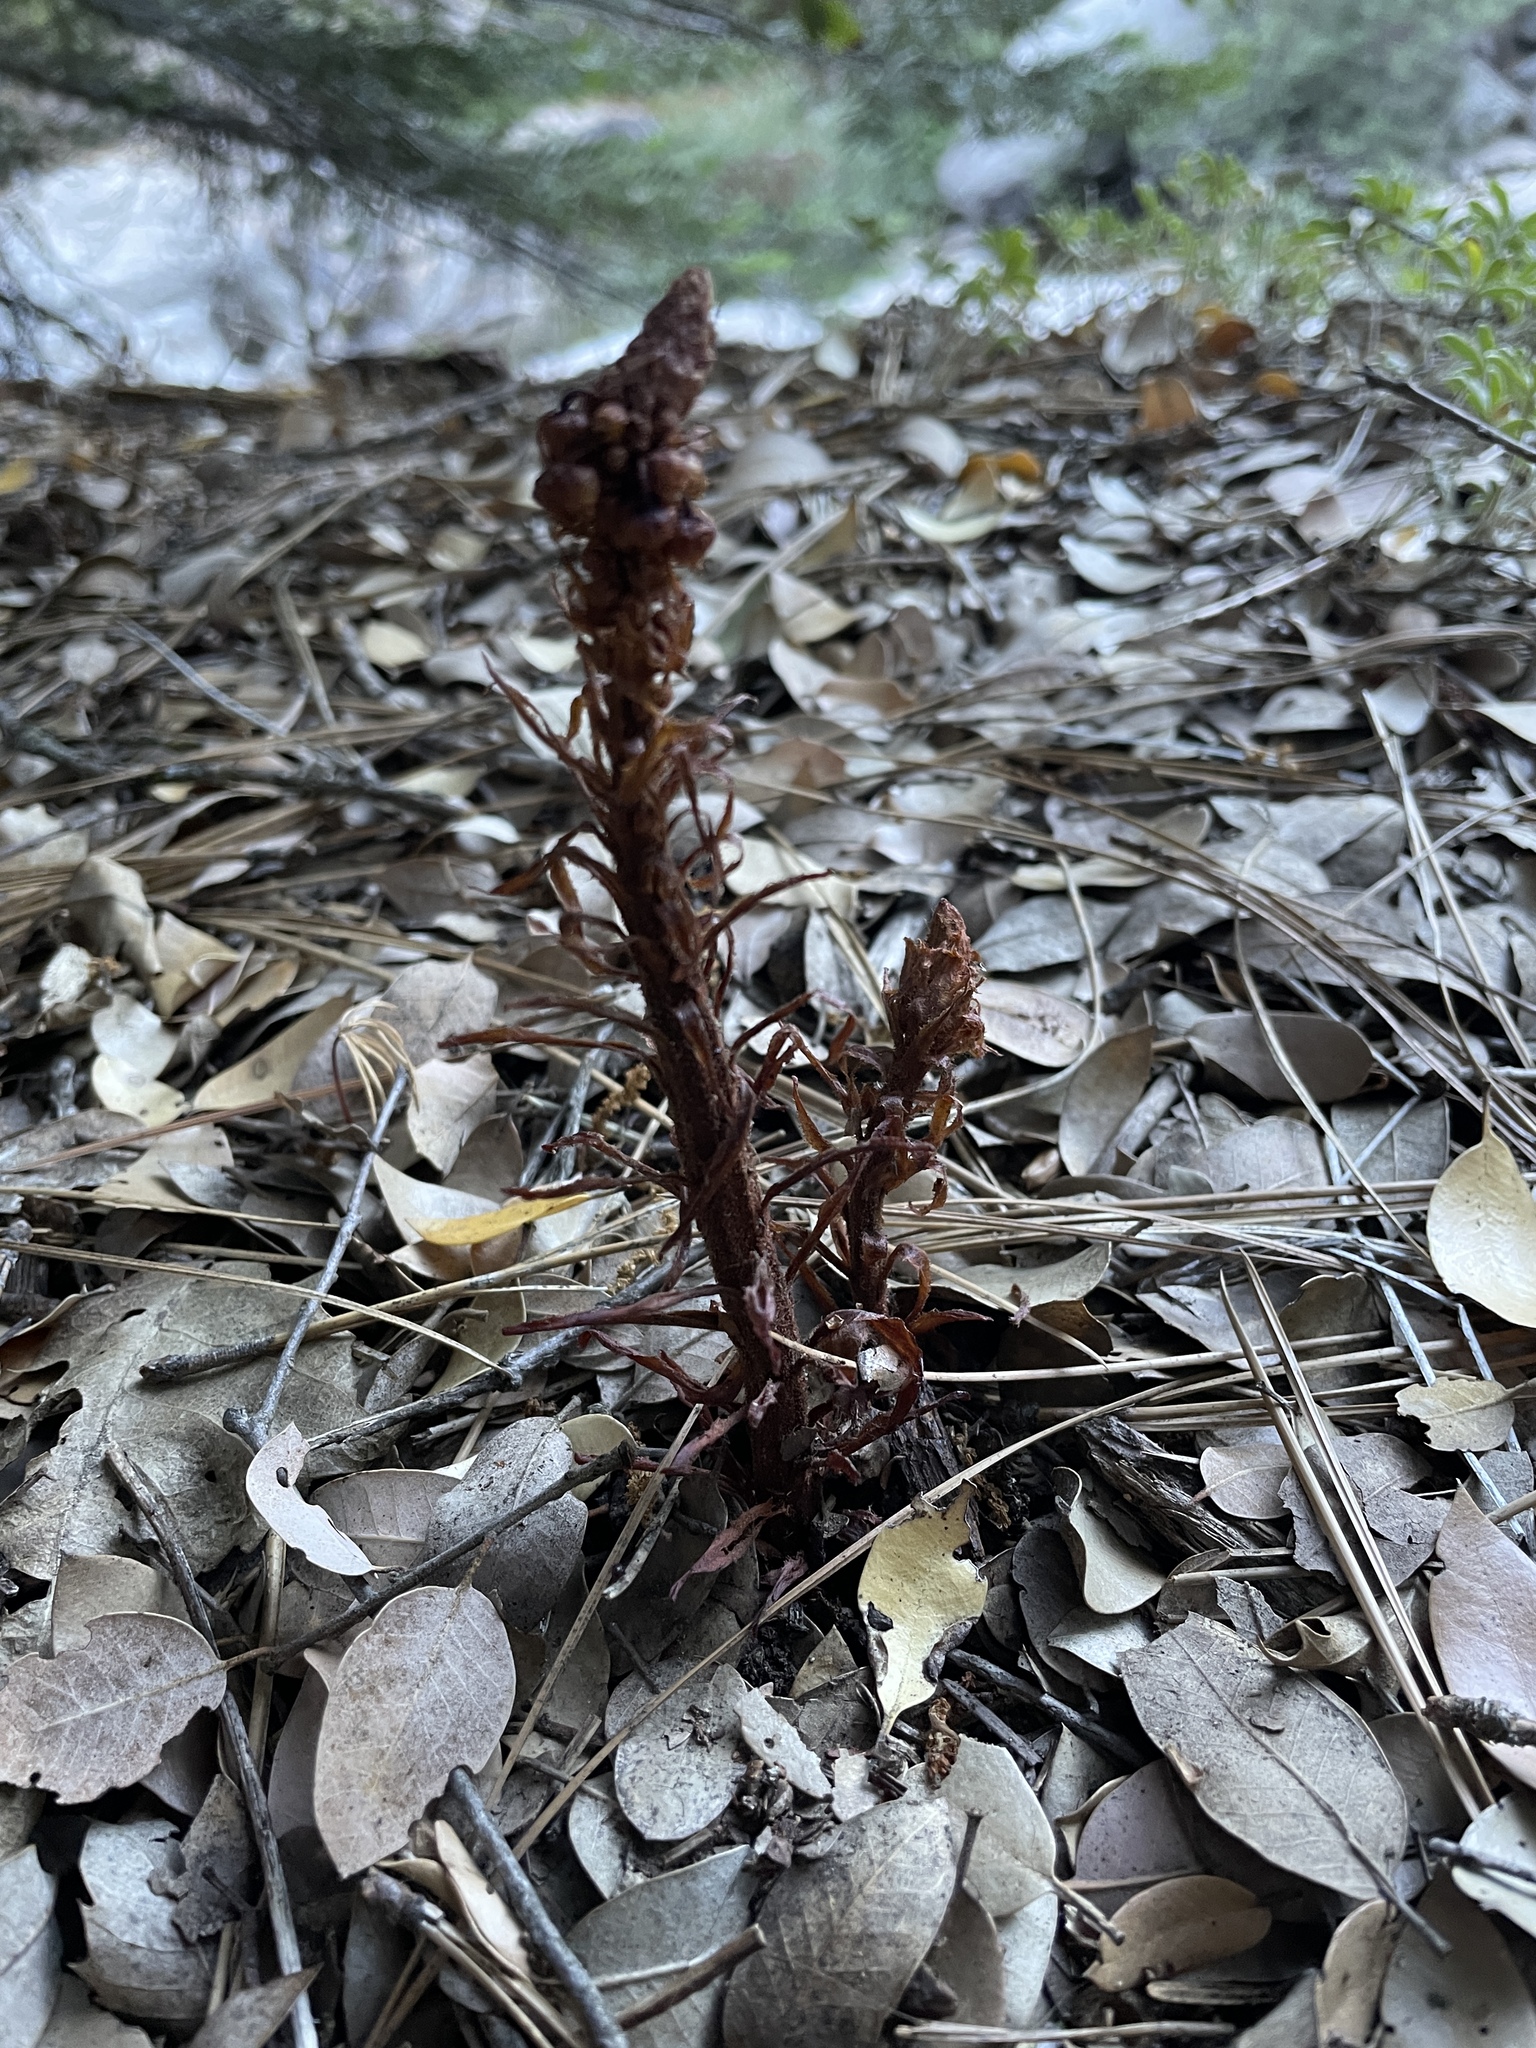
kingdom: Plantae
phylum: Tracheophyta
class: Magnoliopsida
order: Ericales
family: Ericaceae
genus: Pterospora
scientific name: Pterospora andromedea
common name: Giant bird's-nest
